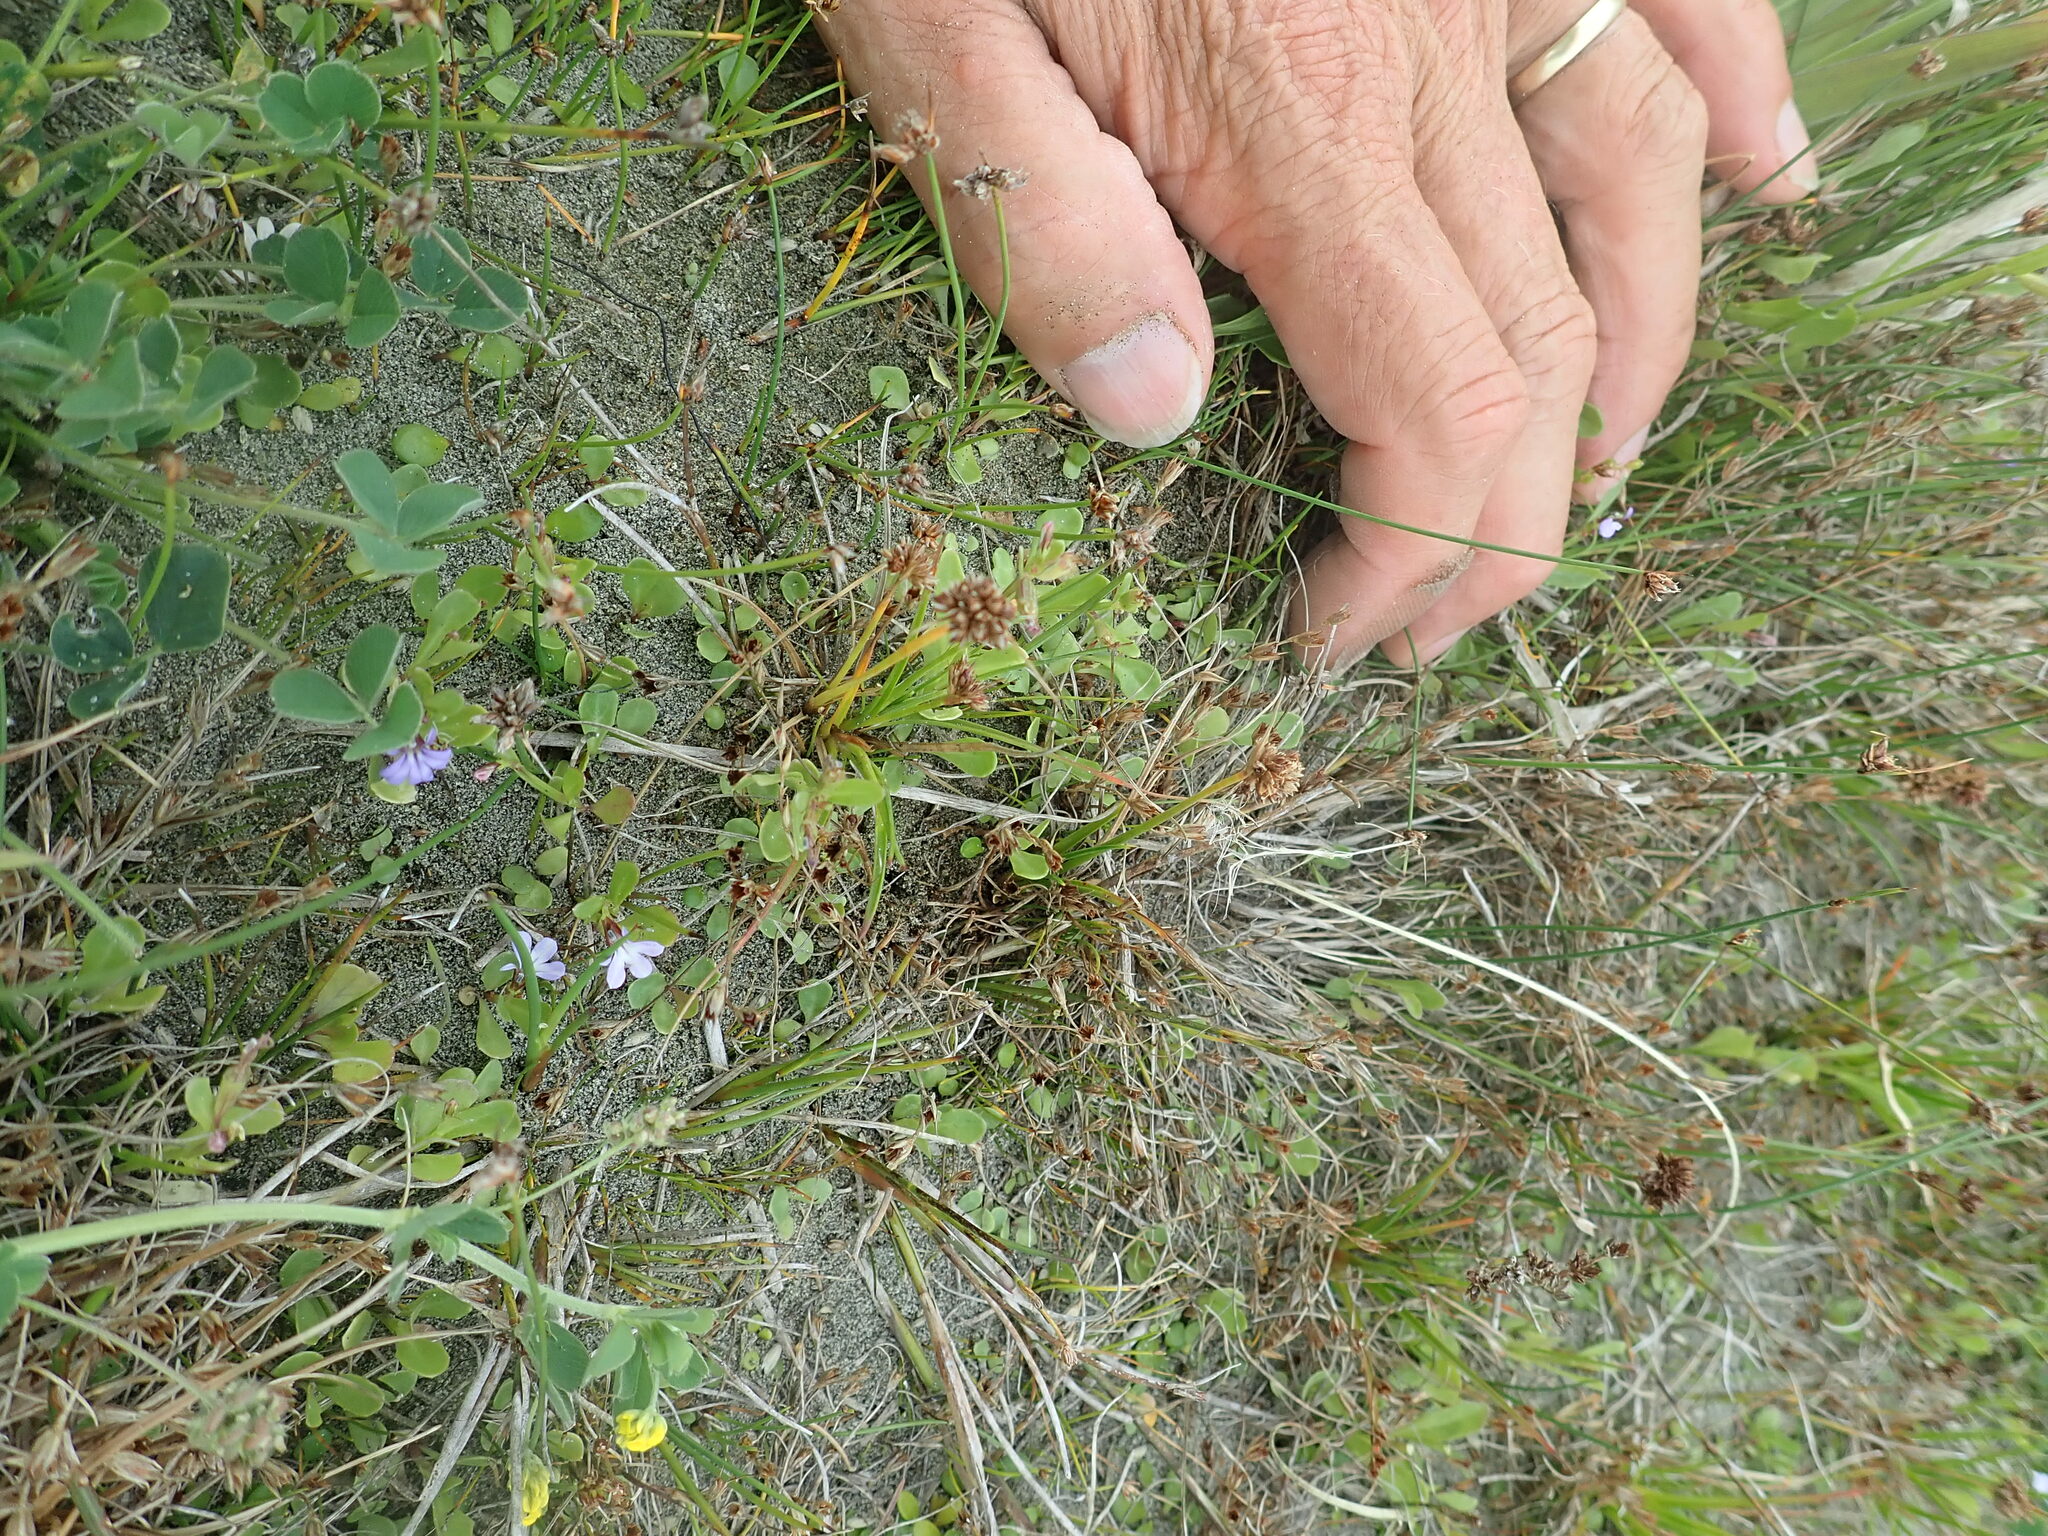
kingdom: Plantae
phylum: Tracheophyta
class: Liliopsida
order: Poales
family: Juncaceae
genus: Juncus
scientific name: Juncus caespiticius
